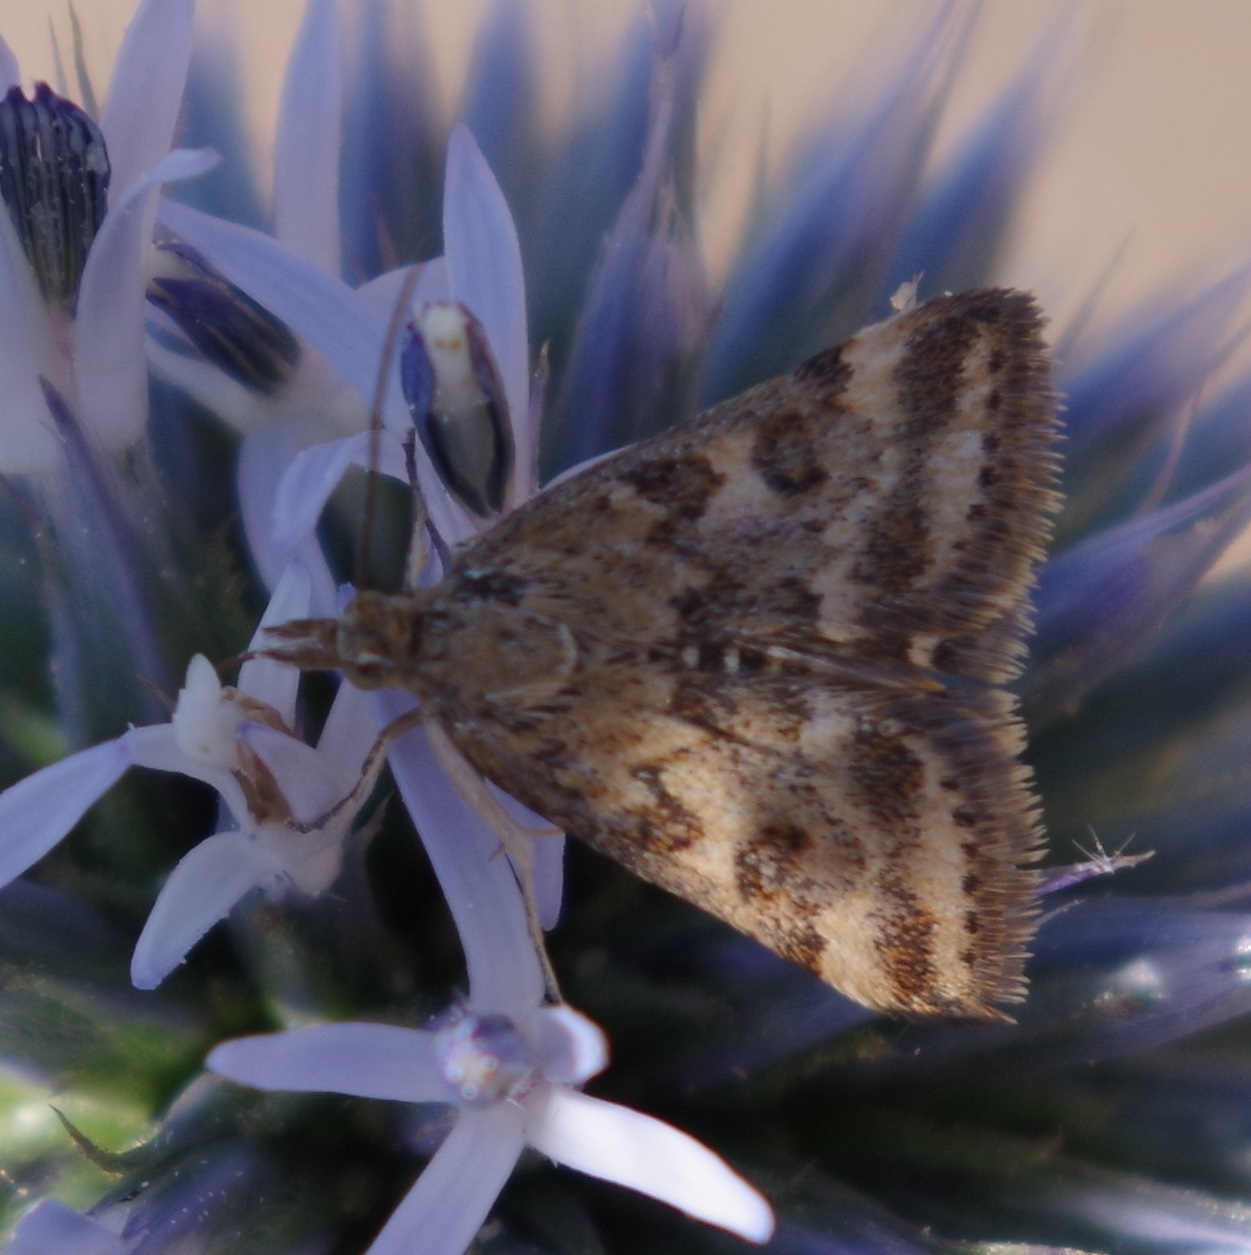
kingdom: Animalia
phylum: Arthropoda
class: Insecta
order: Lepidoptera
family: Crambidae
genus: Pyrausta
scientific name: Pyrausta despicata
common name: Straw-barred pearl
